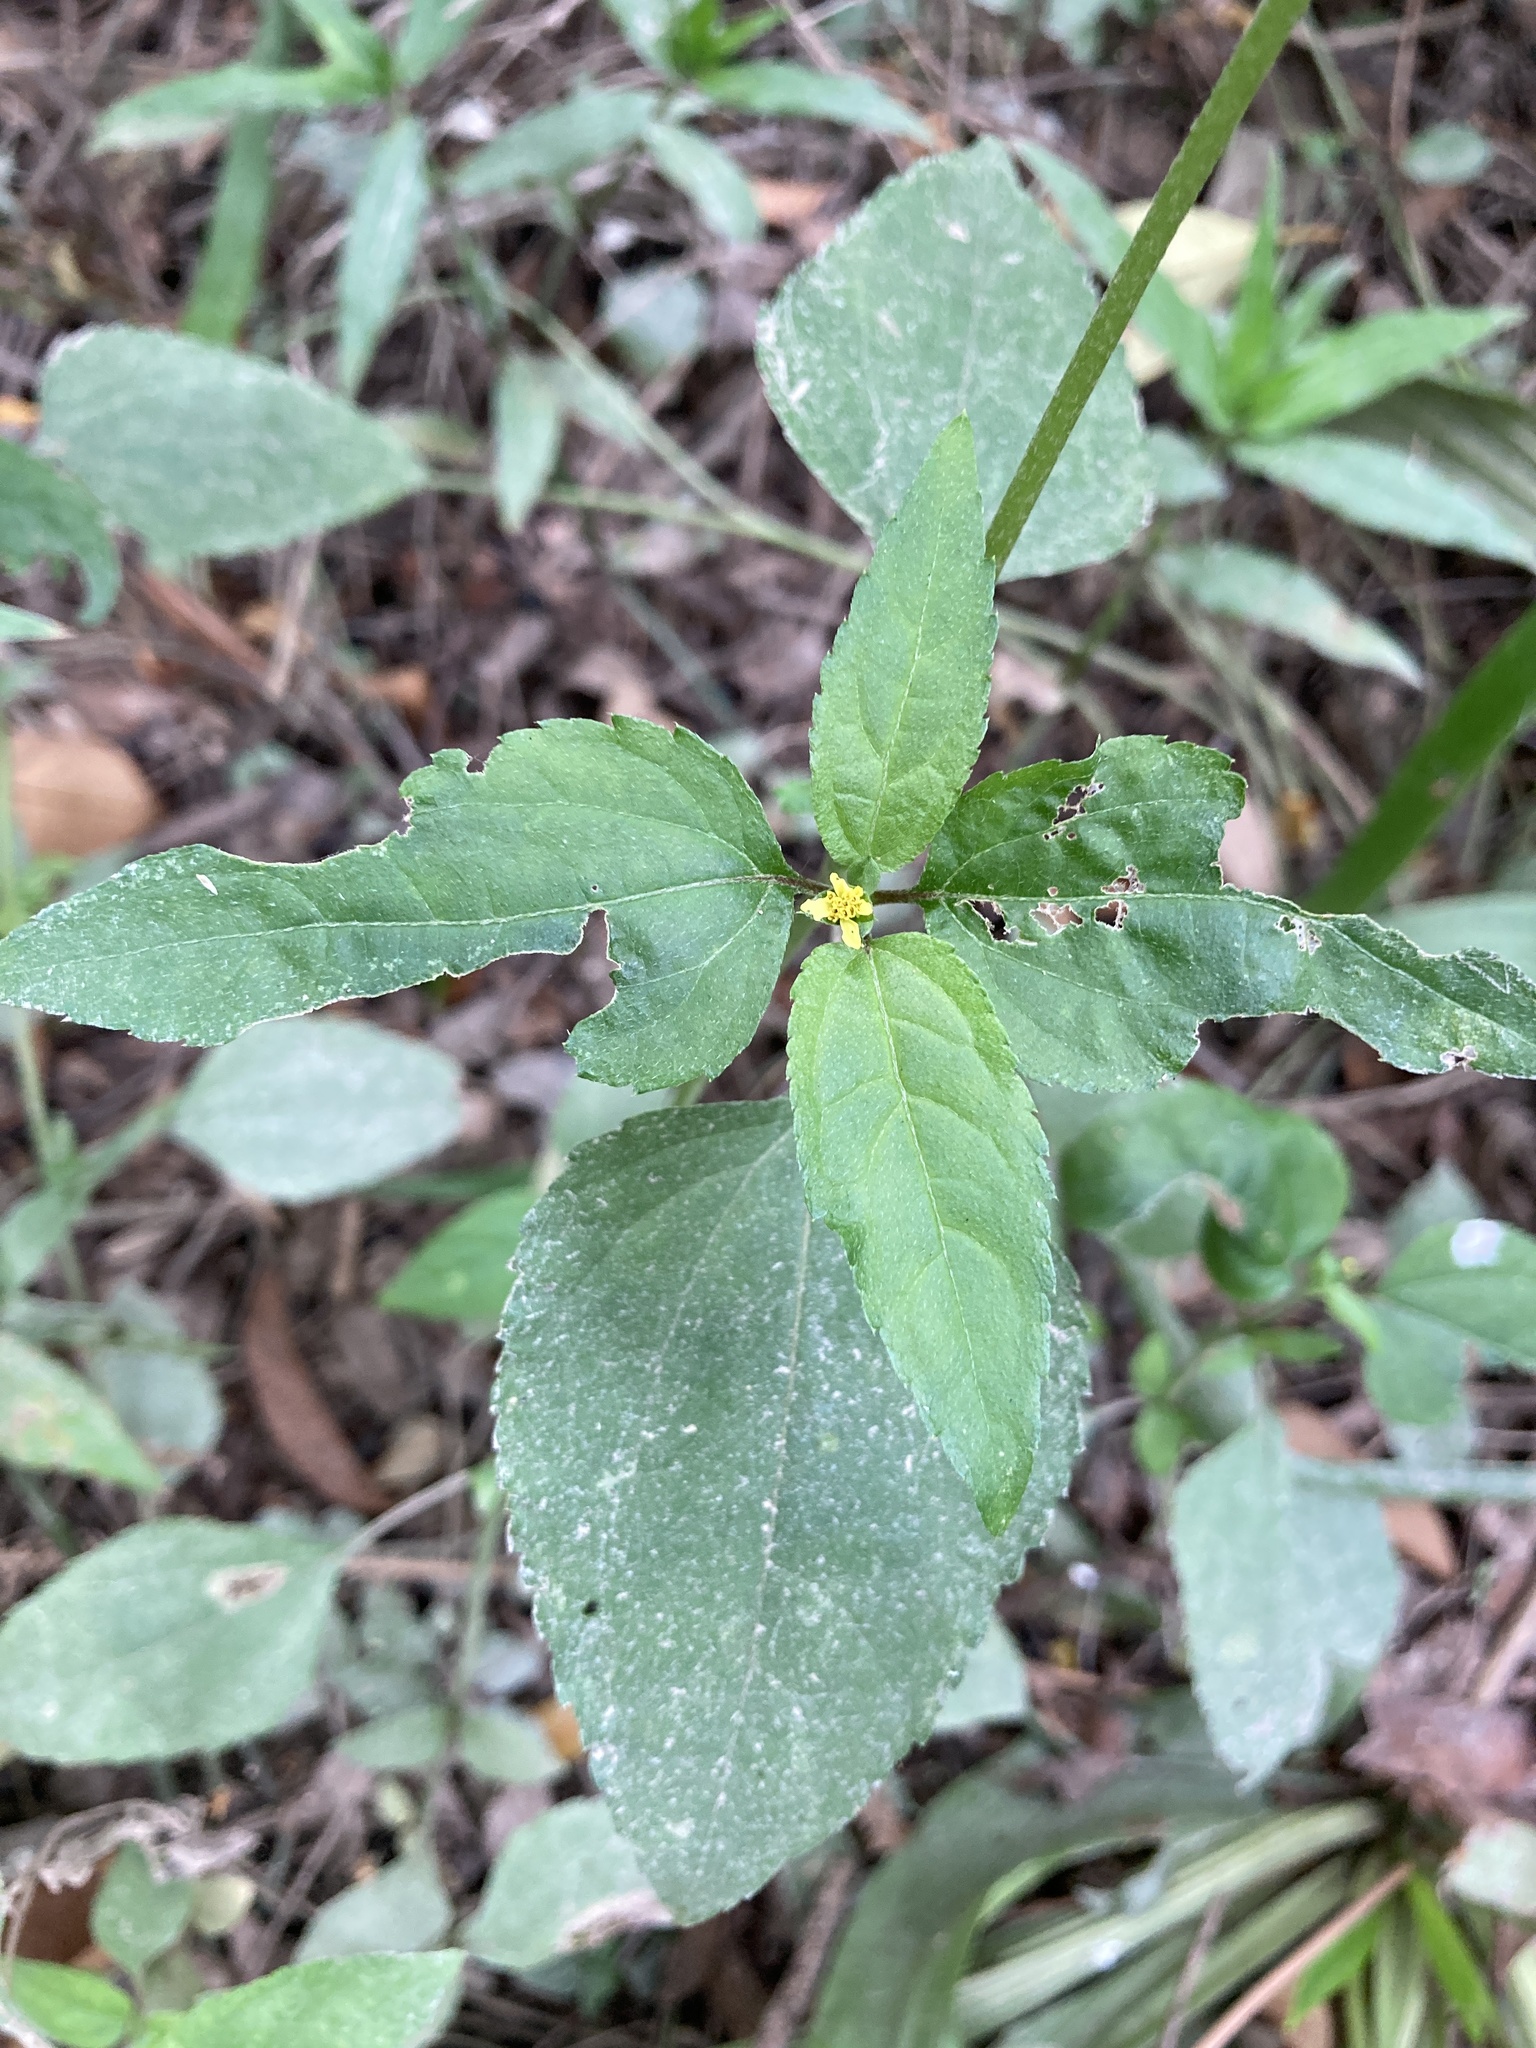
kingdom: Plantae
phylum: Tracheophyta
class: Magnoliopsida
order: Asterales
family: Asteraceae
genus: Calyptocarpus
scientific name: Calyptocarpus brasiliensis
